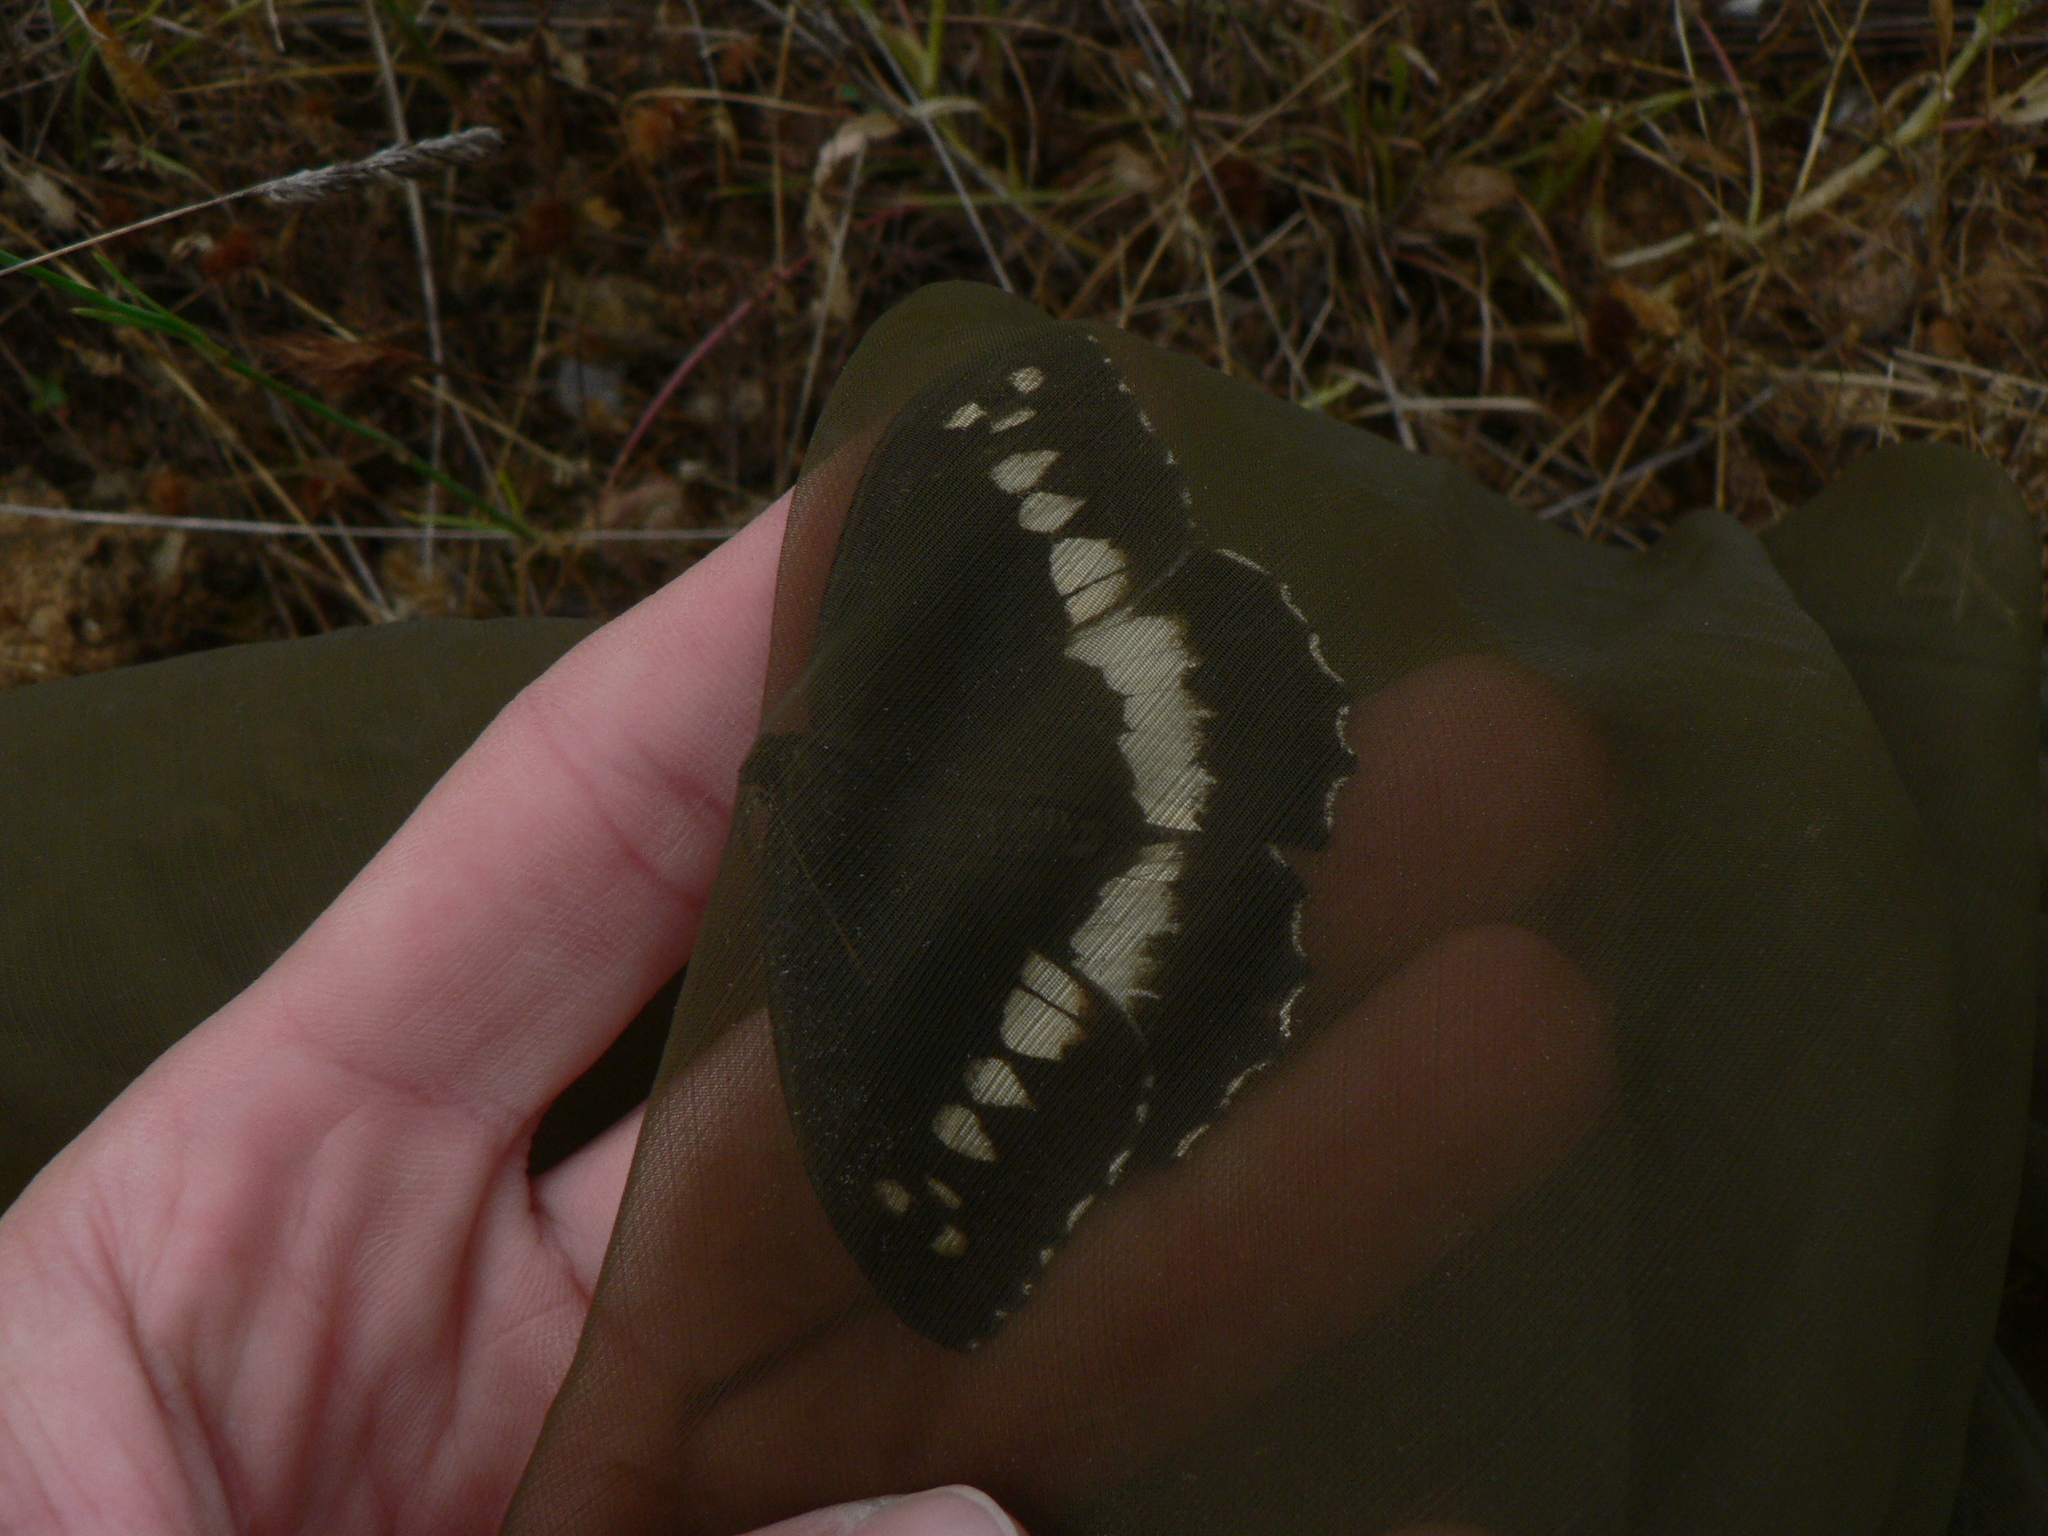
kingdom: Animalia
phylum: Arthropoda
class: Insecta
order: Lepidoptera
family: Lycaenidae
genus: Loweia
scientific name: Loweia tityrus
